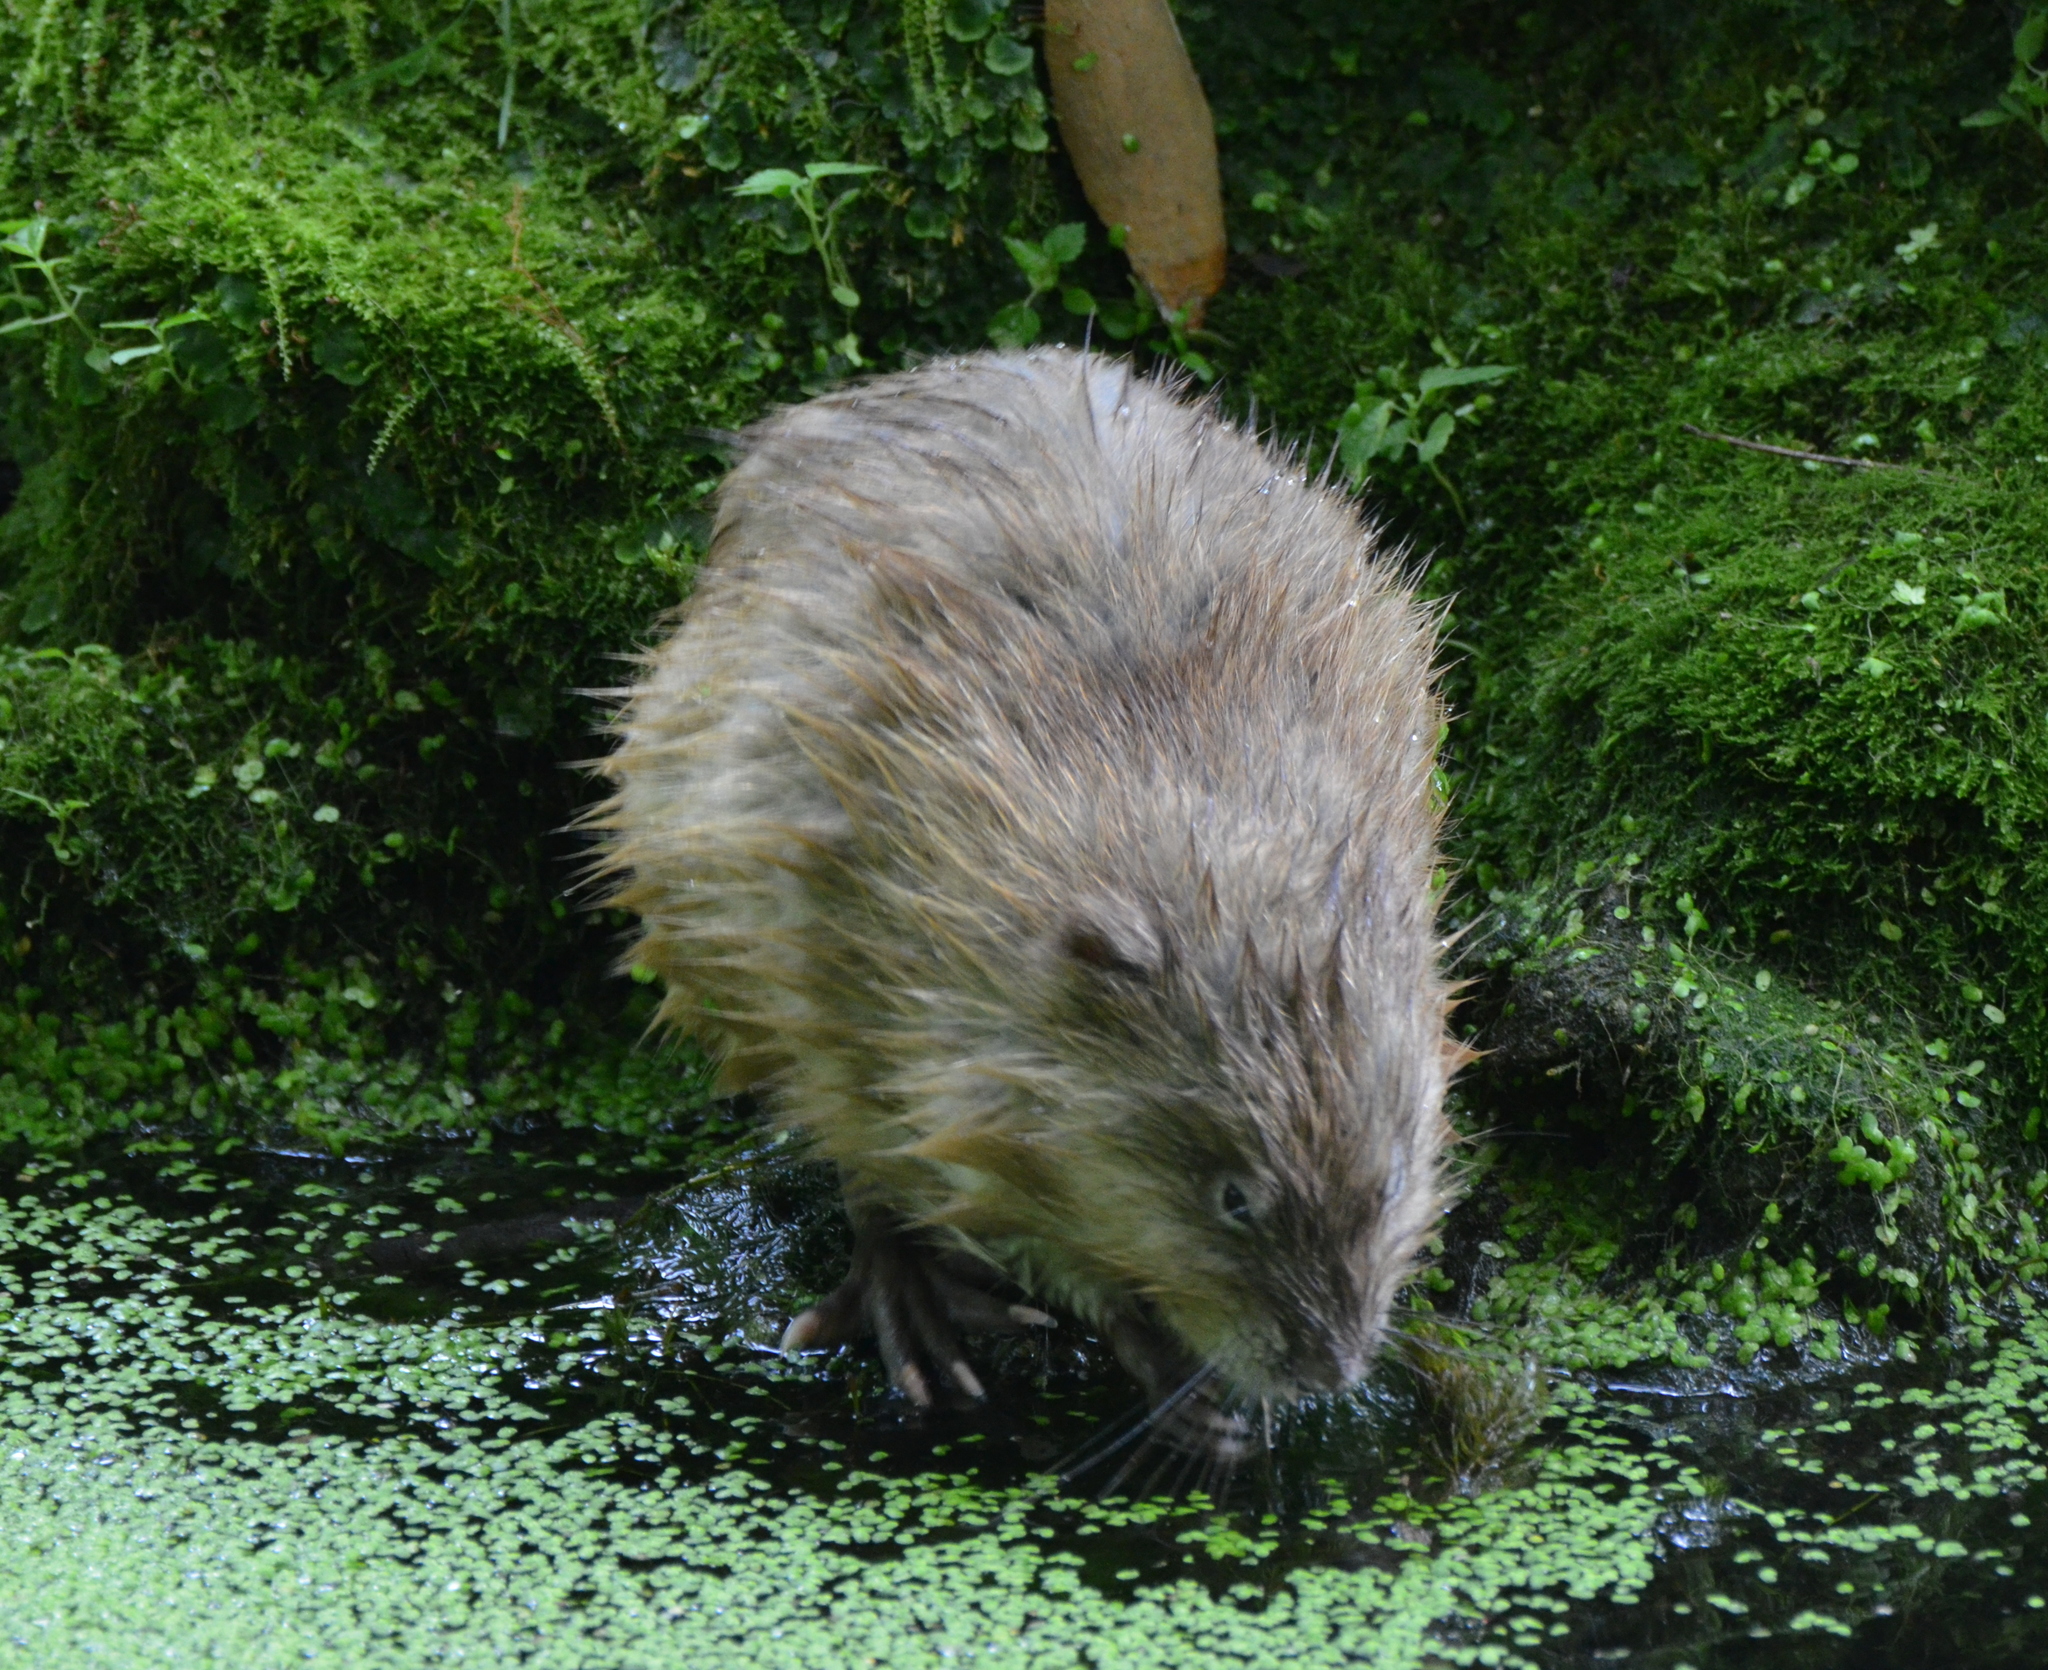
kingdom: Animalia
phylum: Chordata
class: Mammalia
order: Rodentia
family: Cricetidae
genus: Ondatra
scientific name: Ondatra zibethicus
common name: Muskrat
